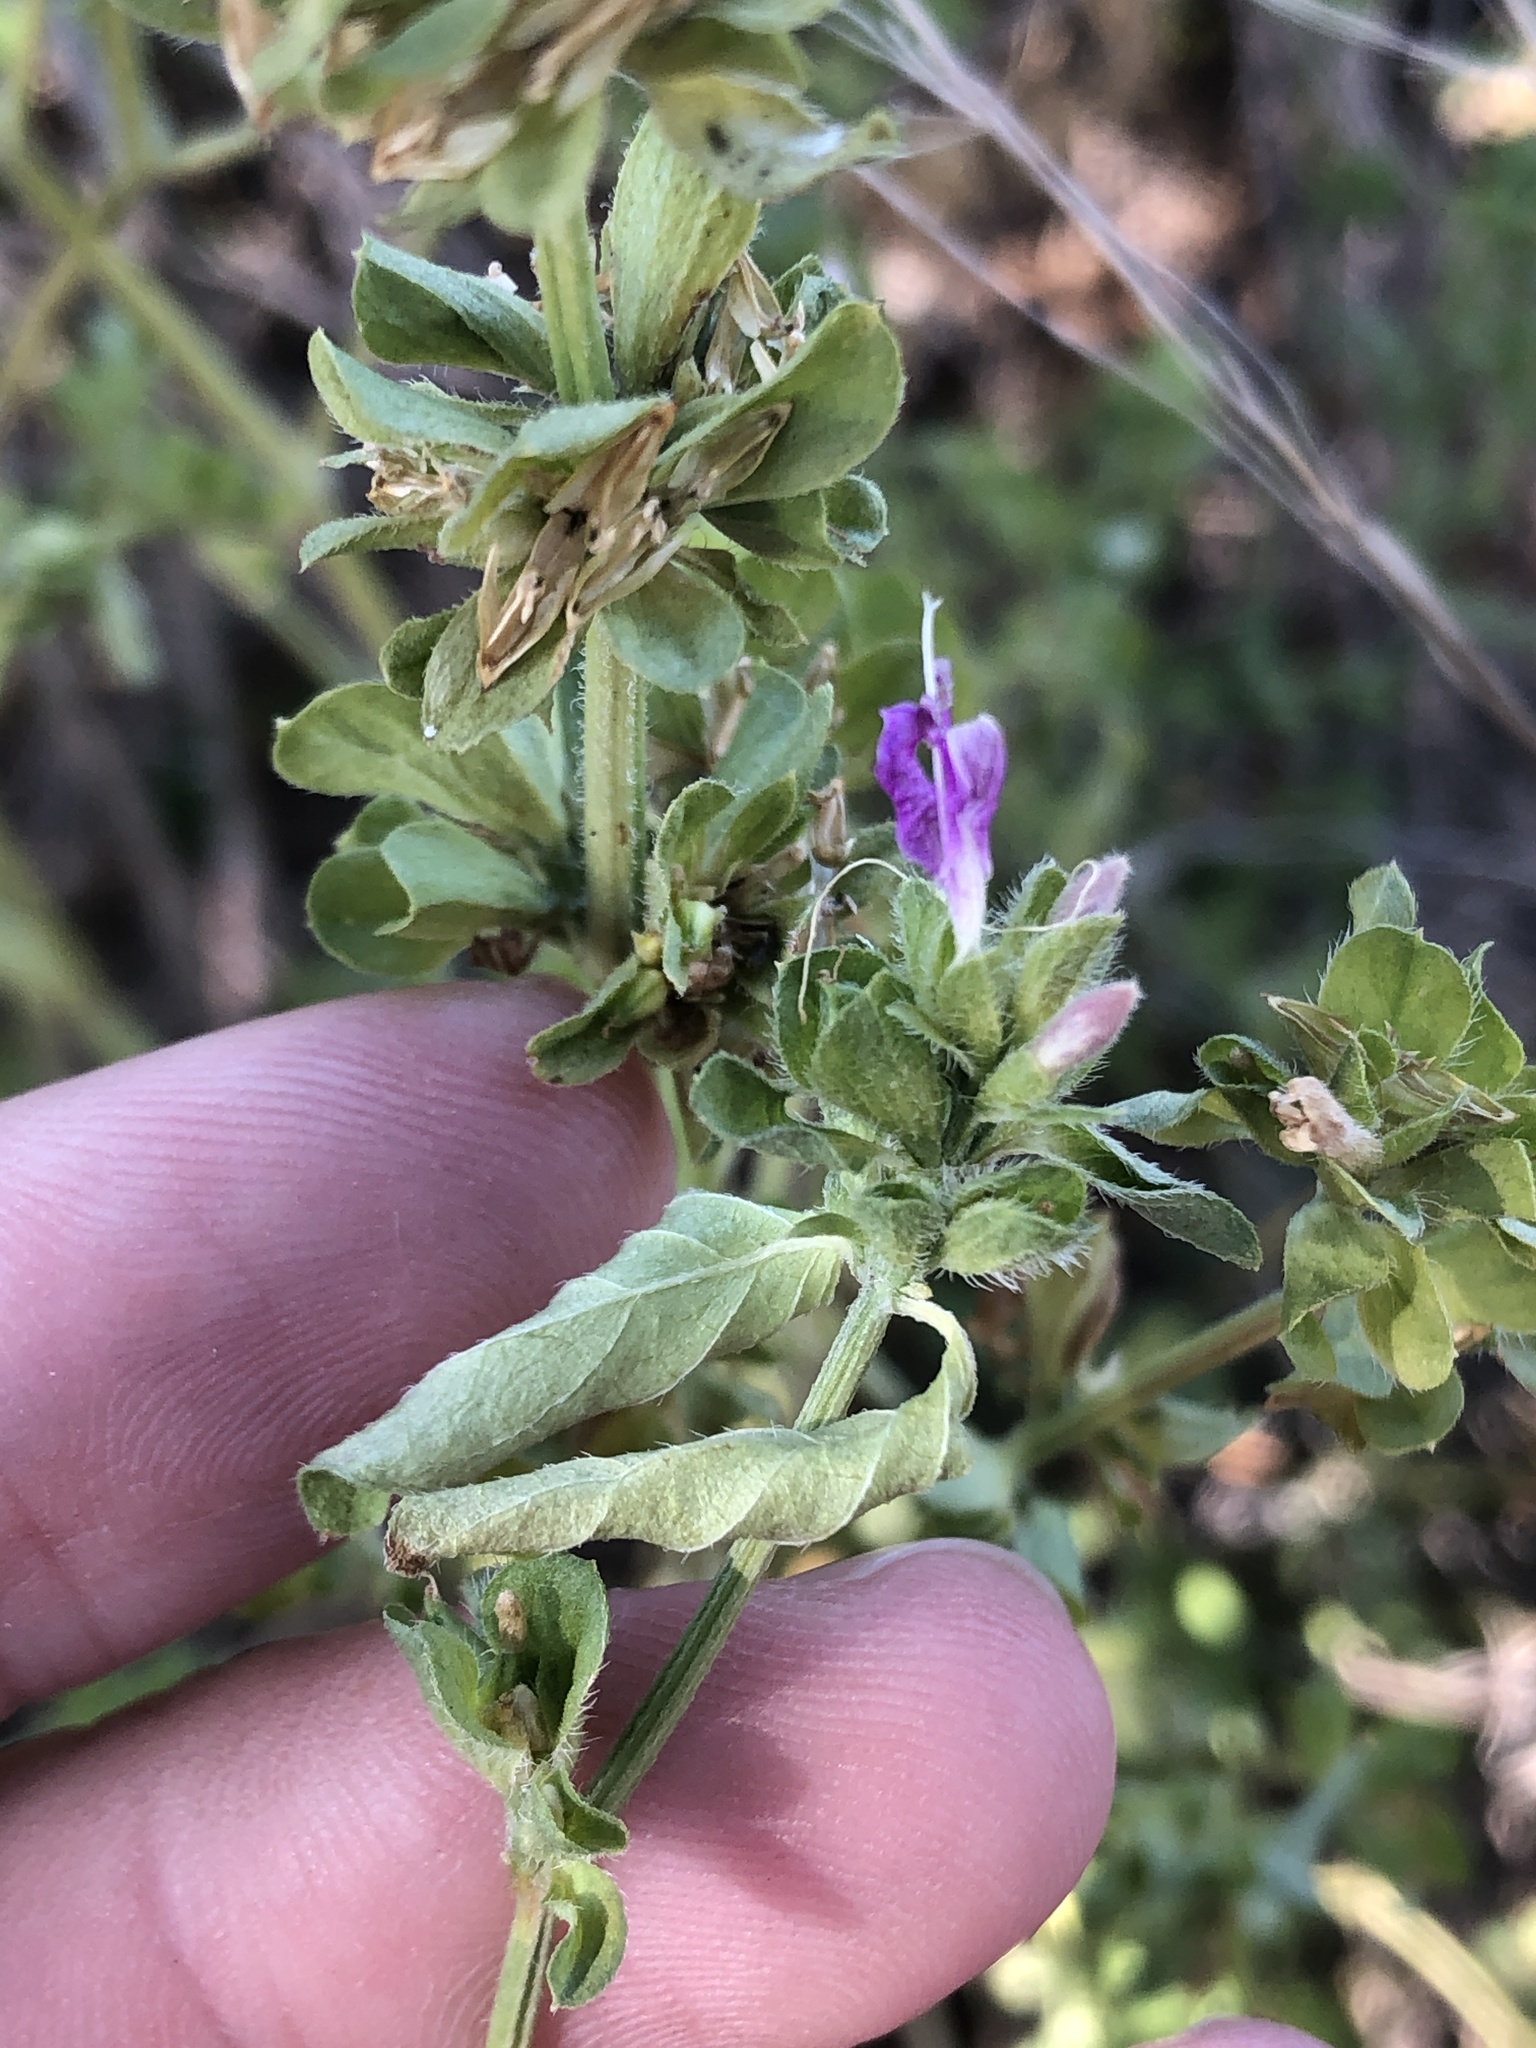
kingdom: Plantae
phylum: Tracheophyta
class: Magnoliopsida
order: Lamiales
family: Acanthaceae
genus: Dicliptera
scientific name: Dicliptera brachiata
